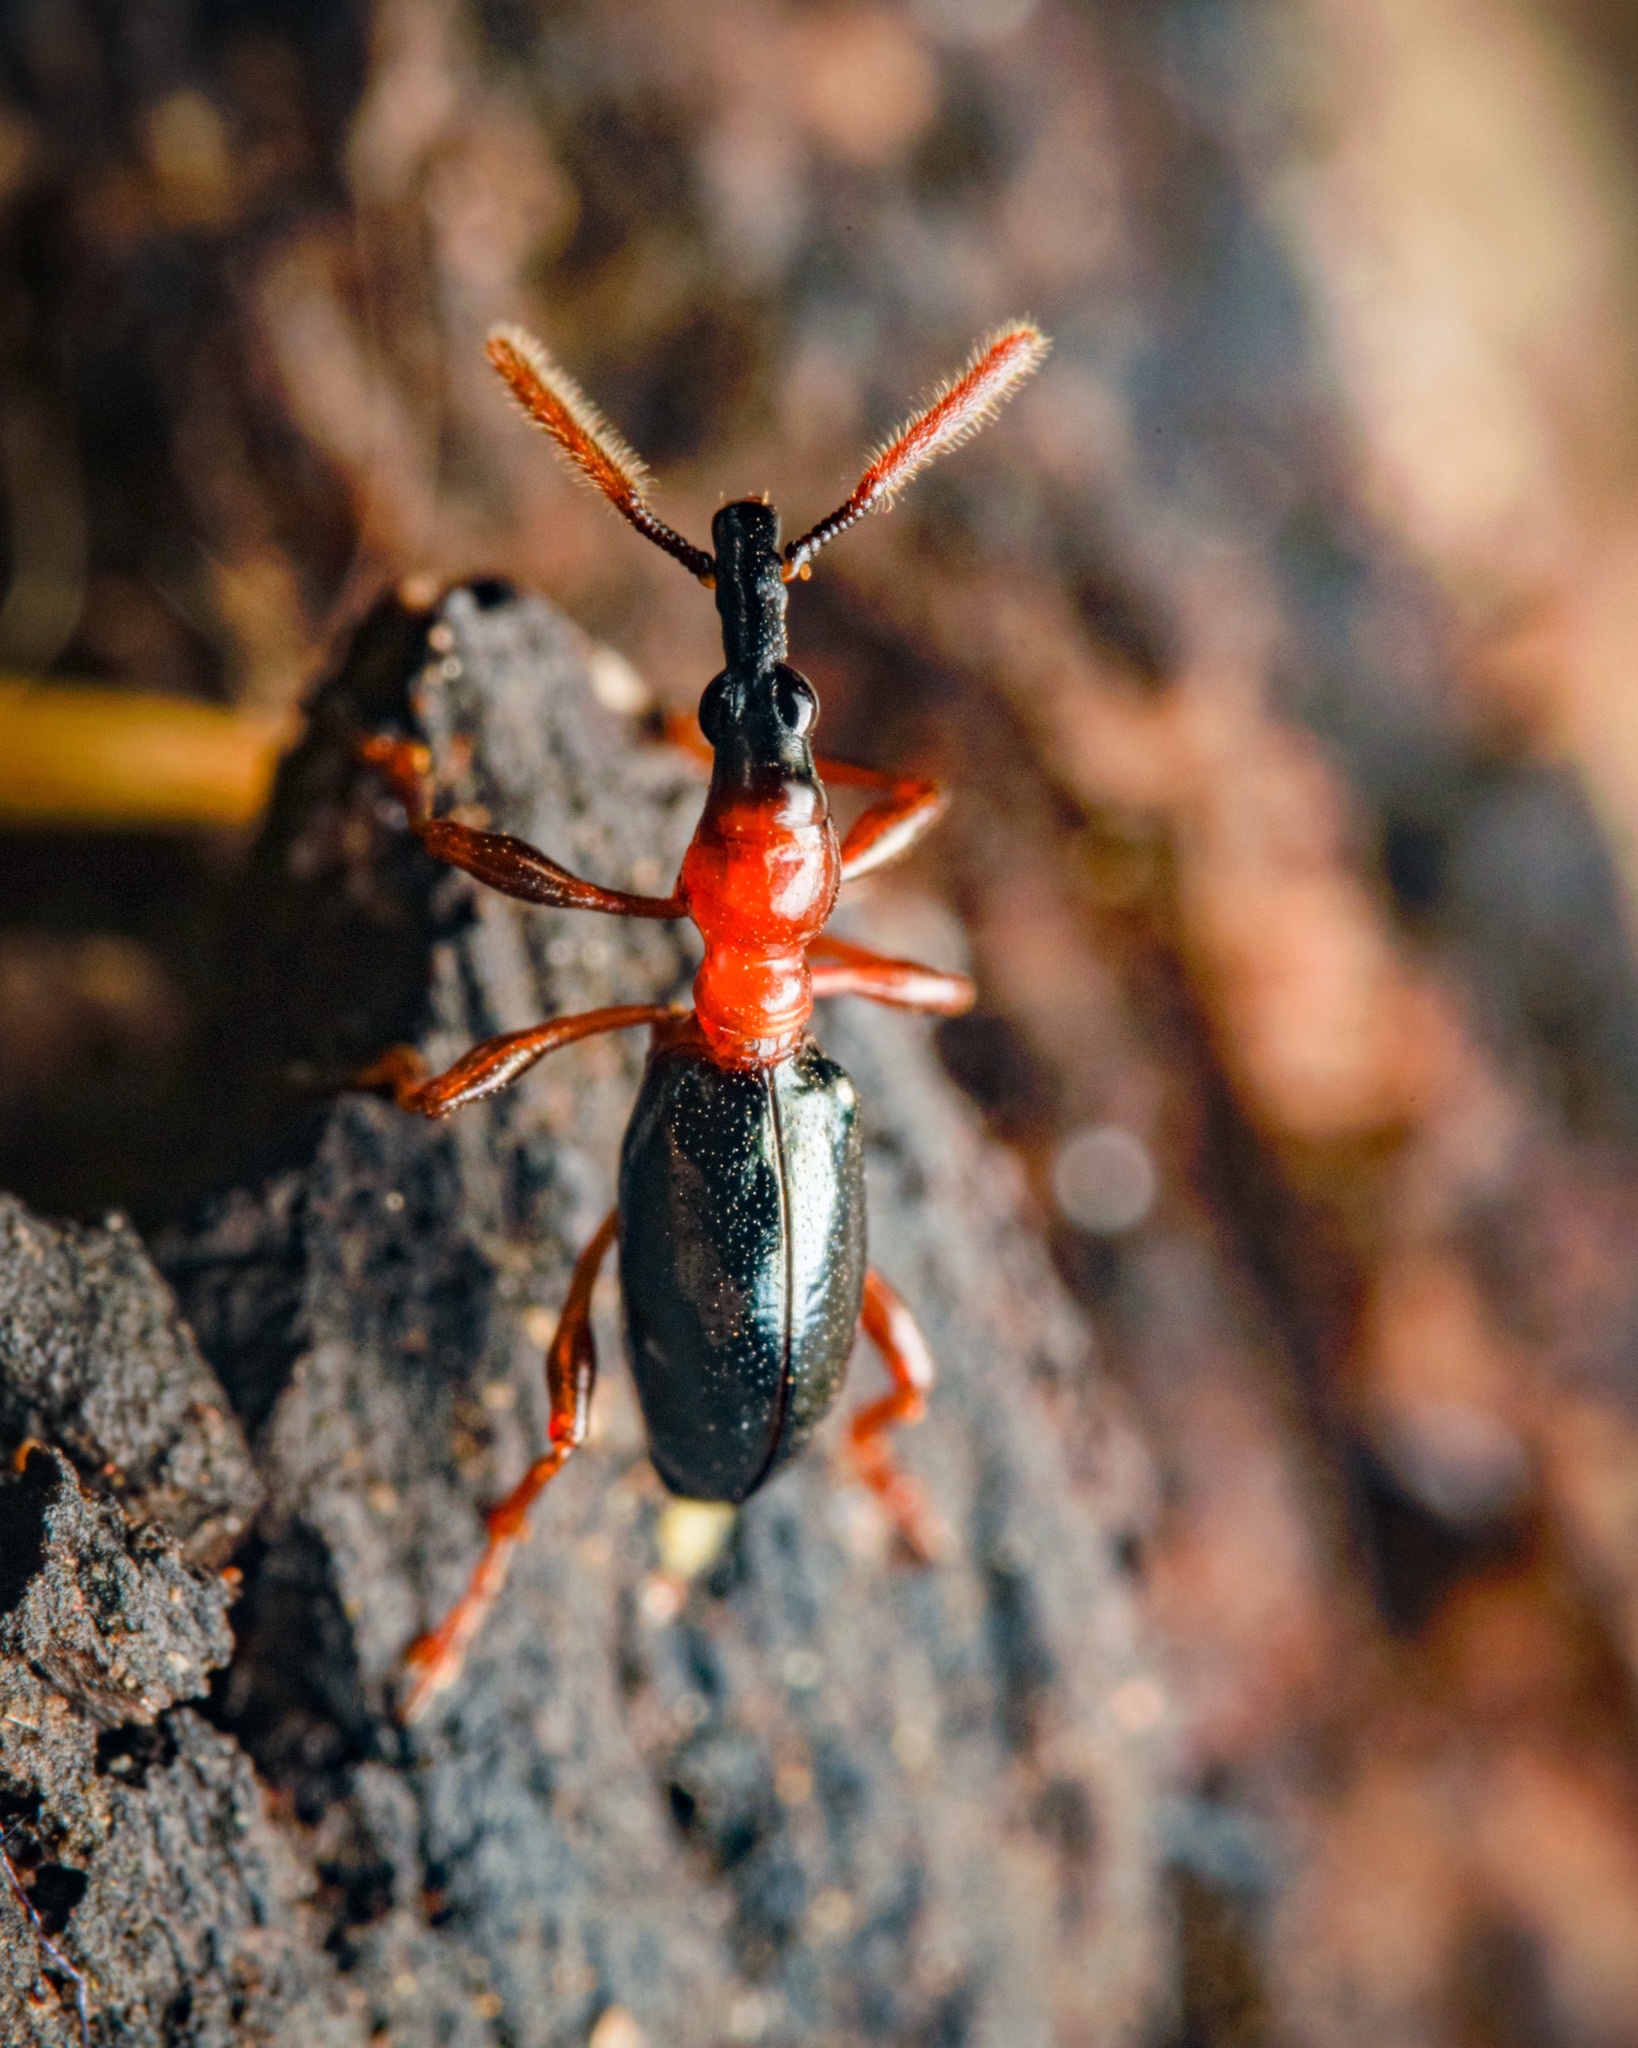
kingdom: Animalia
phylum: Arthropoda
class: Insecta
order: Coleoptera
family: Brentidae
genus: Cylas
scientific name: Cylas formicarius
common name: Sweetpotato weevil
